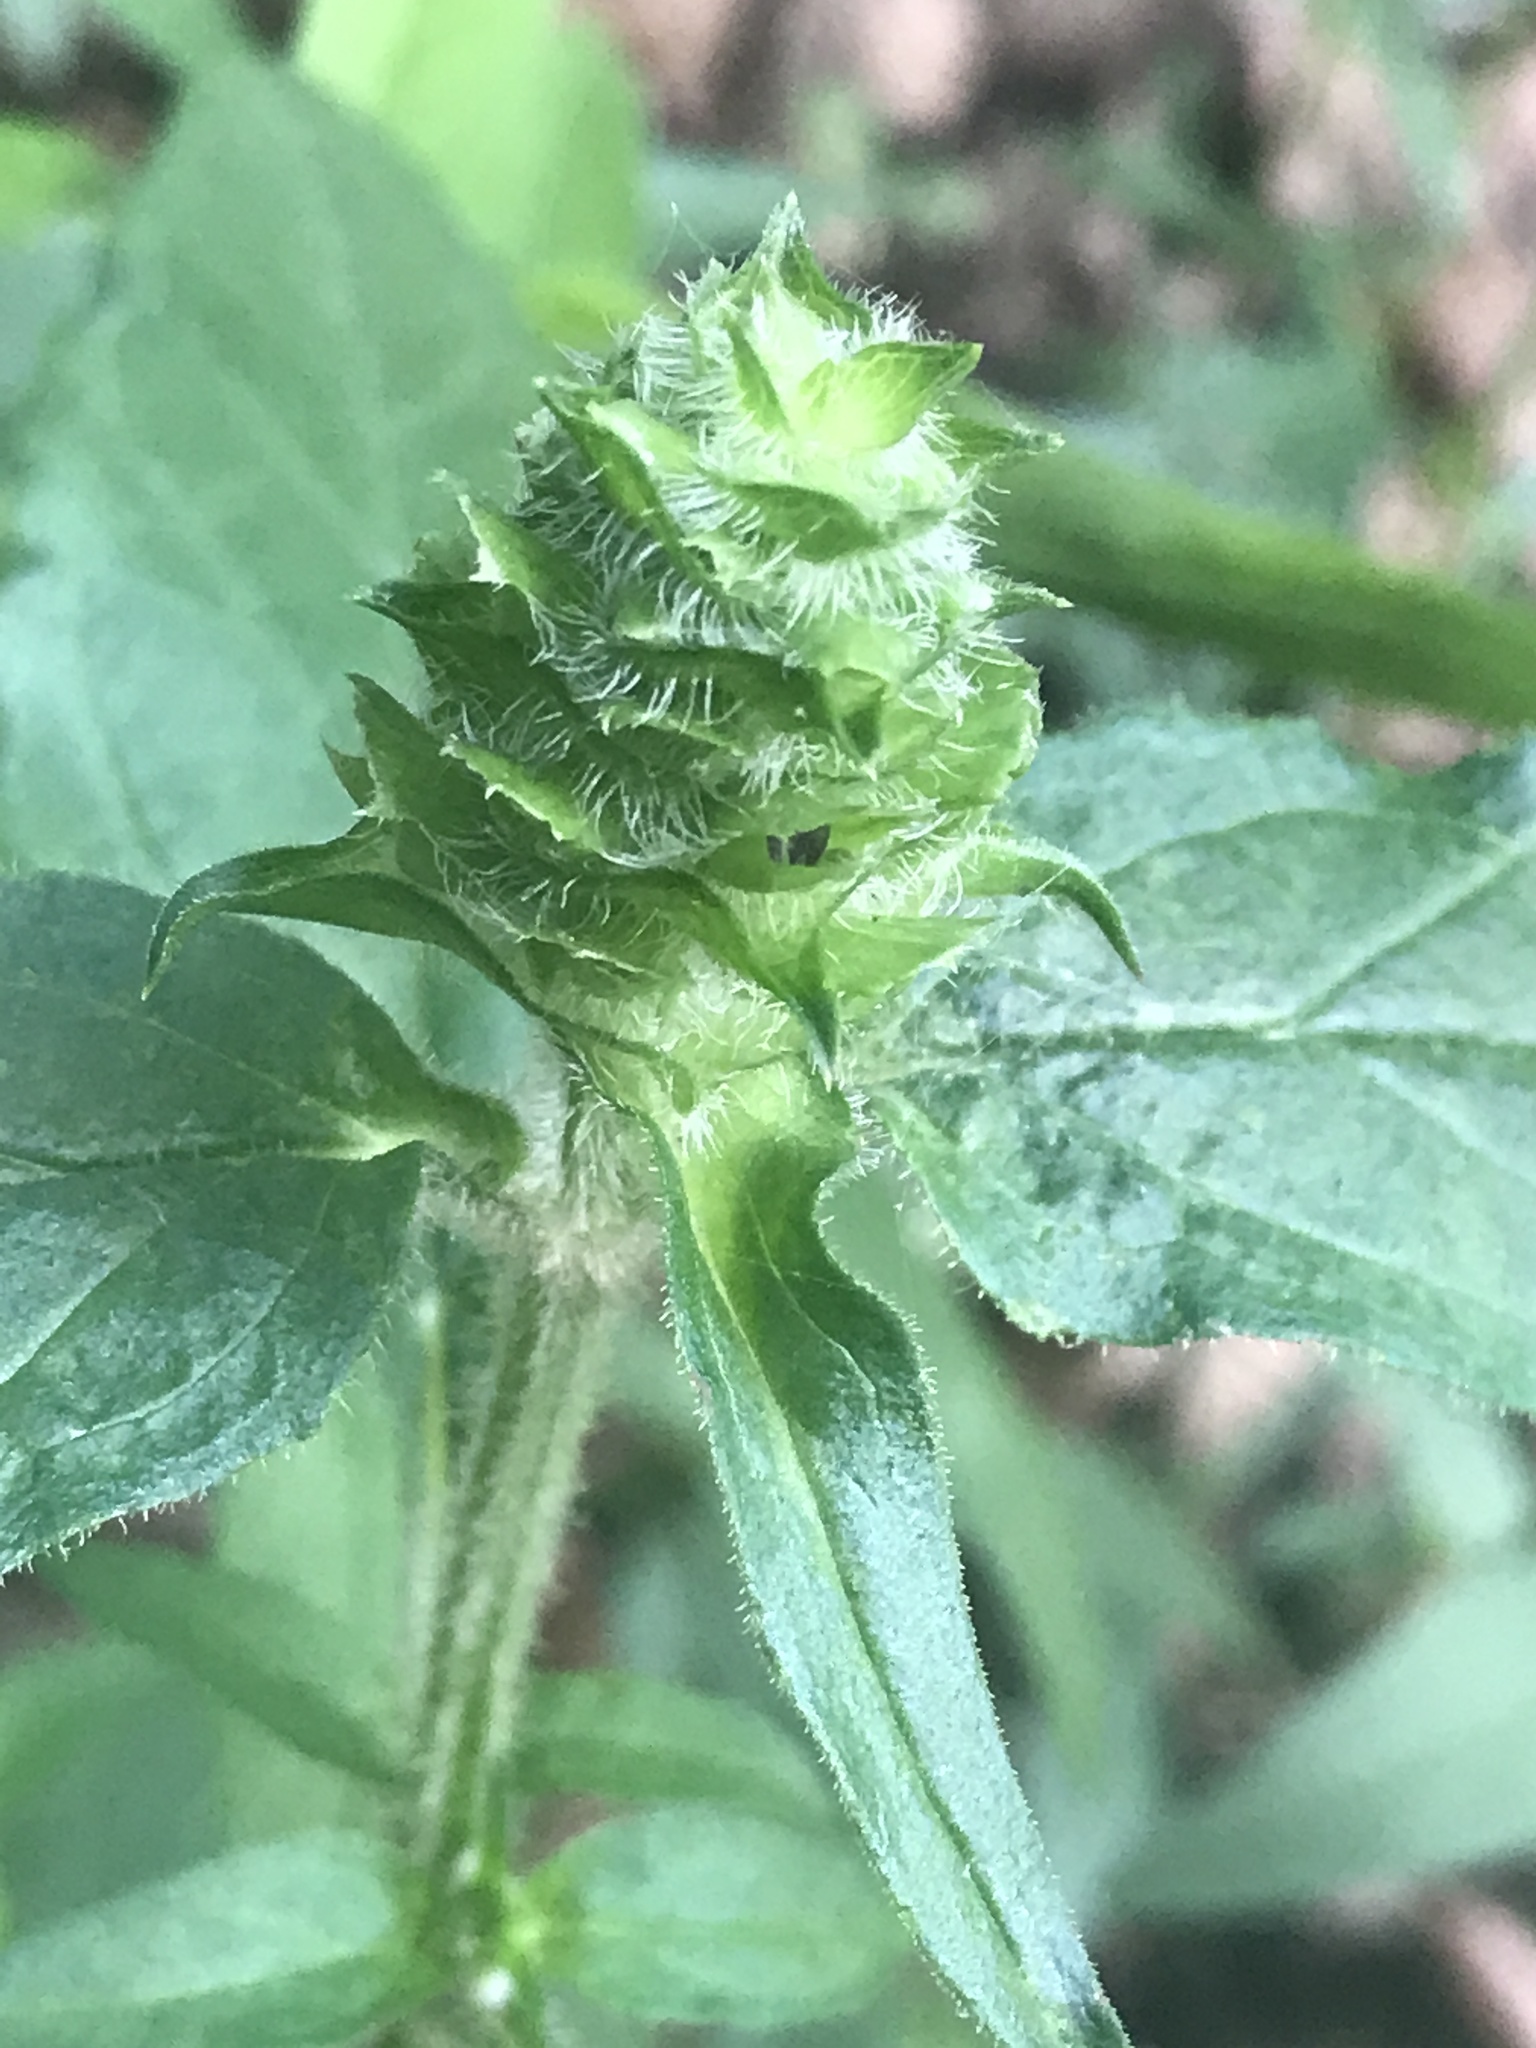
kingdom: Plantae
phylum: Tracheophyta
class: Magnoliopsida
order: Lamiales
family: Lamiaceae
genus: Prunella
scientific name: Prunella vulgaris
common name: Heal-all
